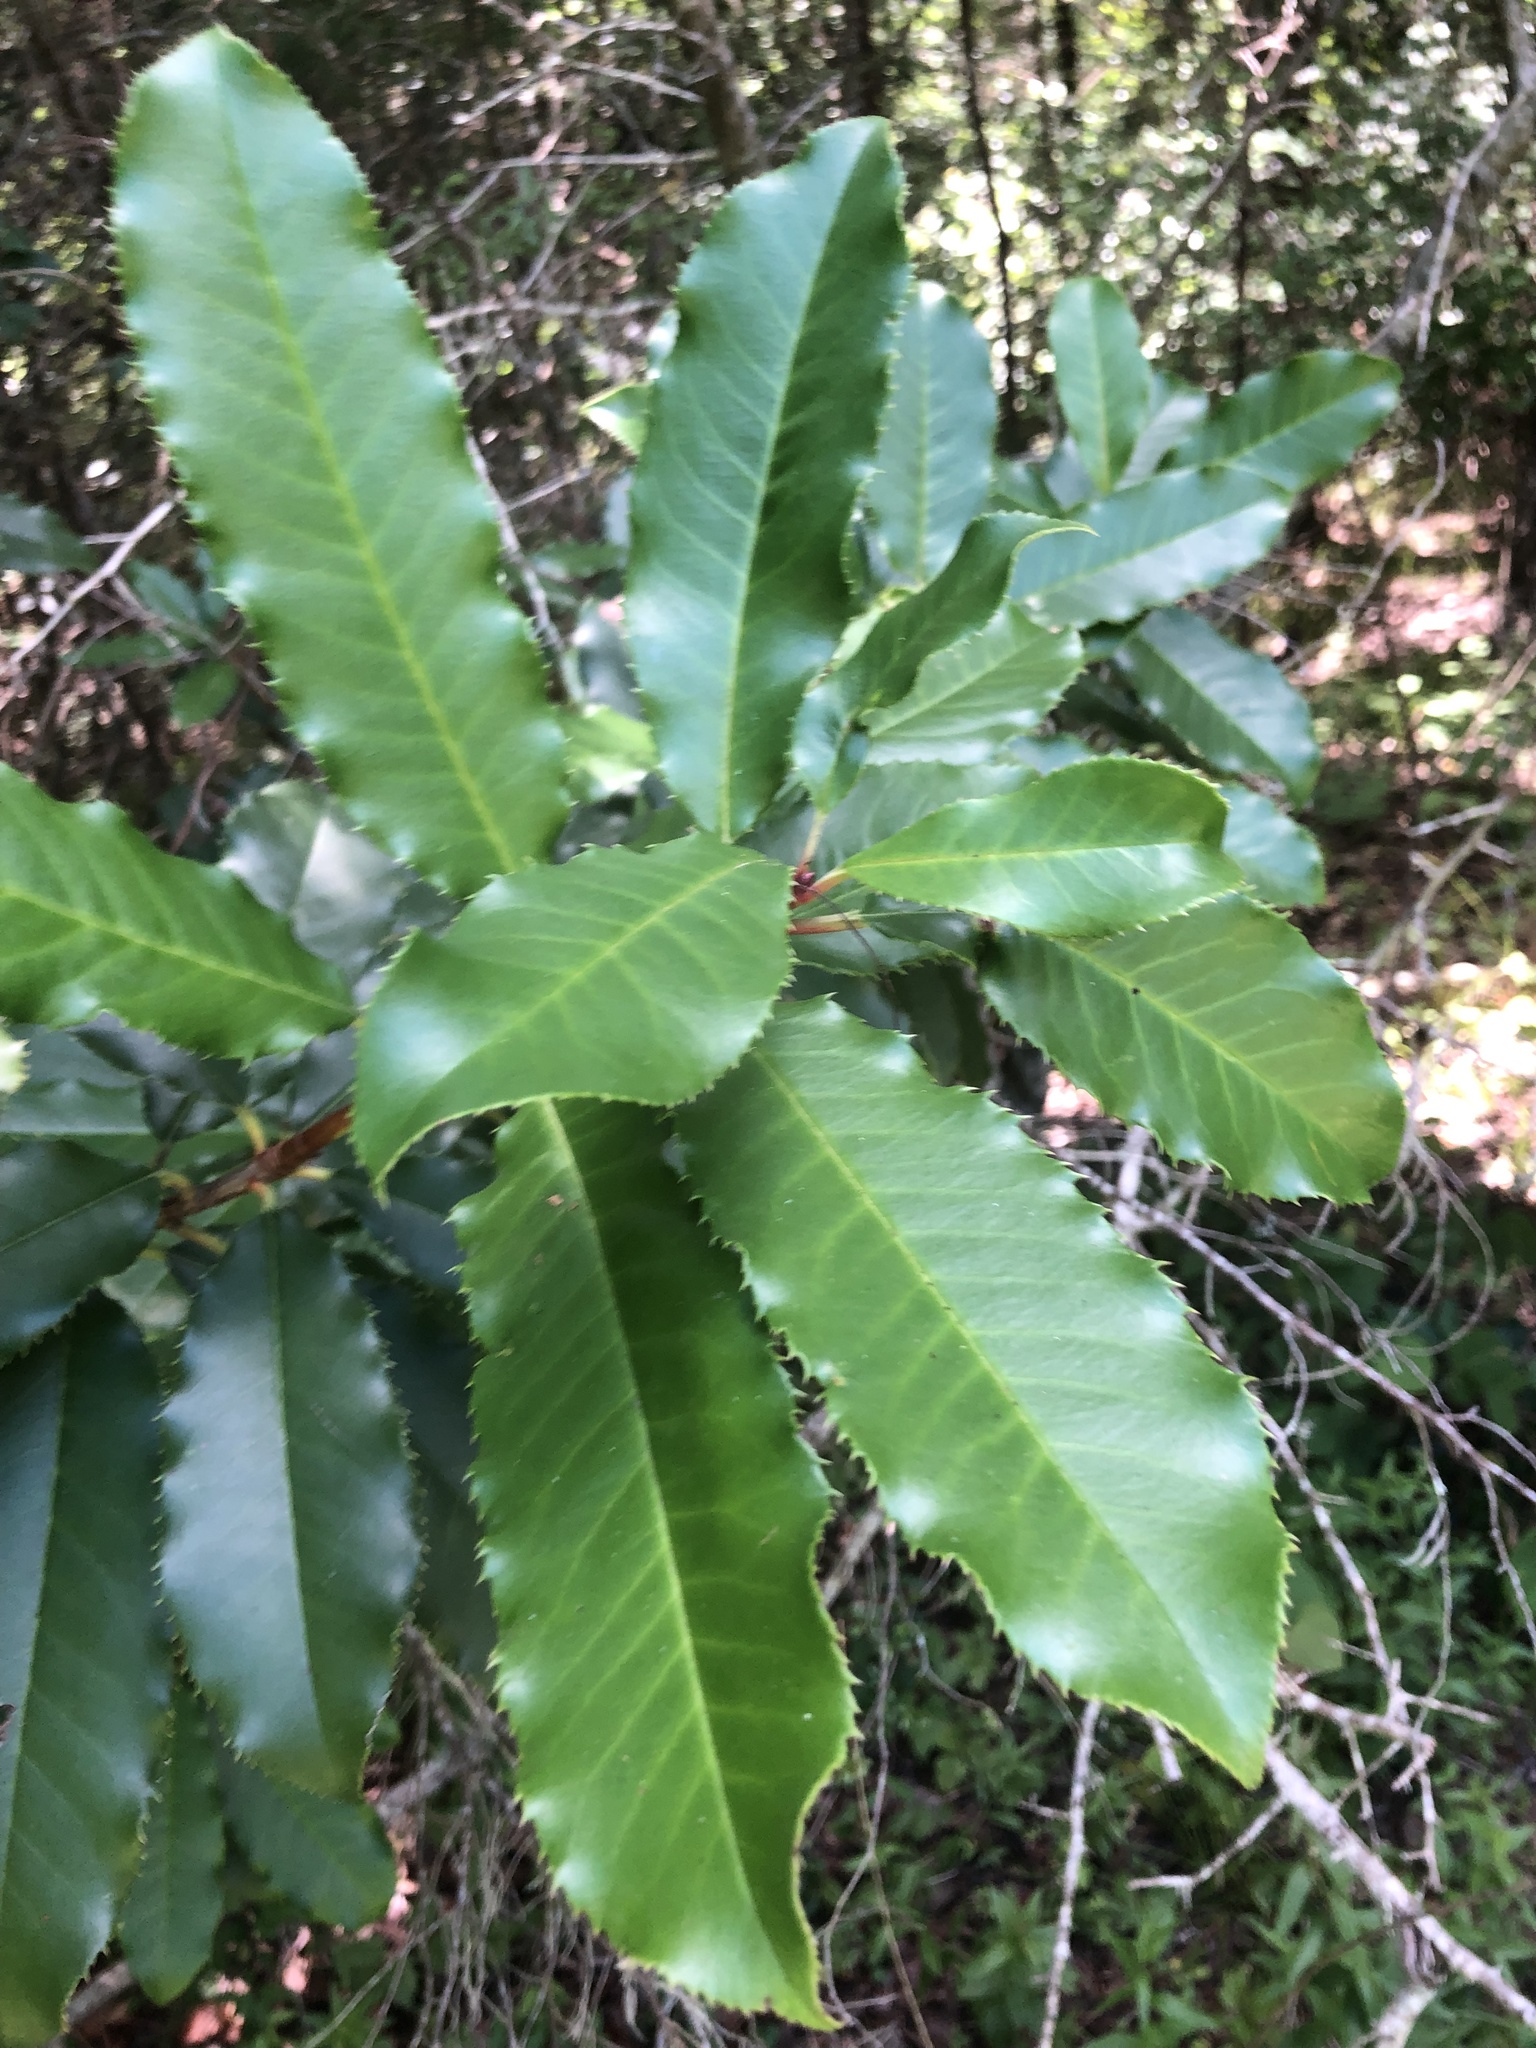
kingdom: Plantae
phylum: Tracheophyta
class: Magnoliopsida
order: Rosales
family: Rosaceae
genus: Photinia
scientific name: Photinia serratifolia
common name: Taiwanese photinia
